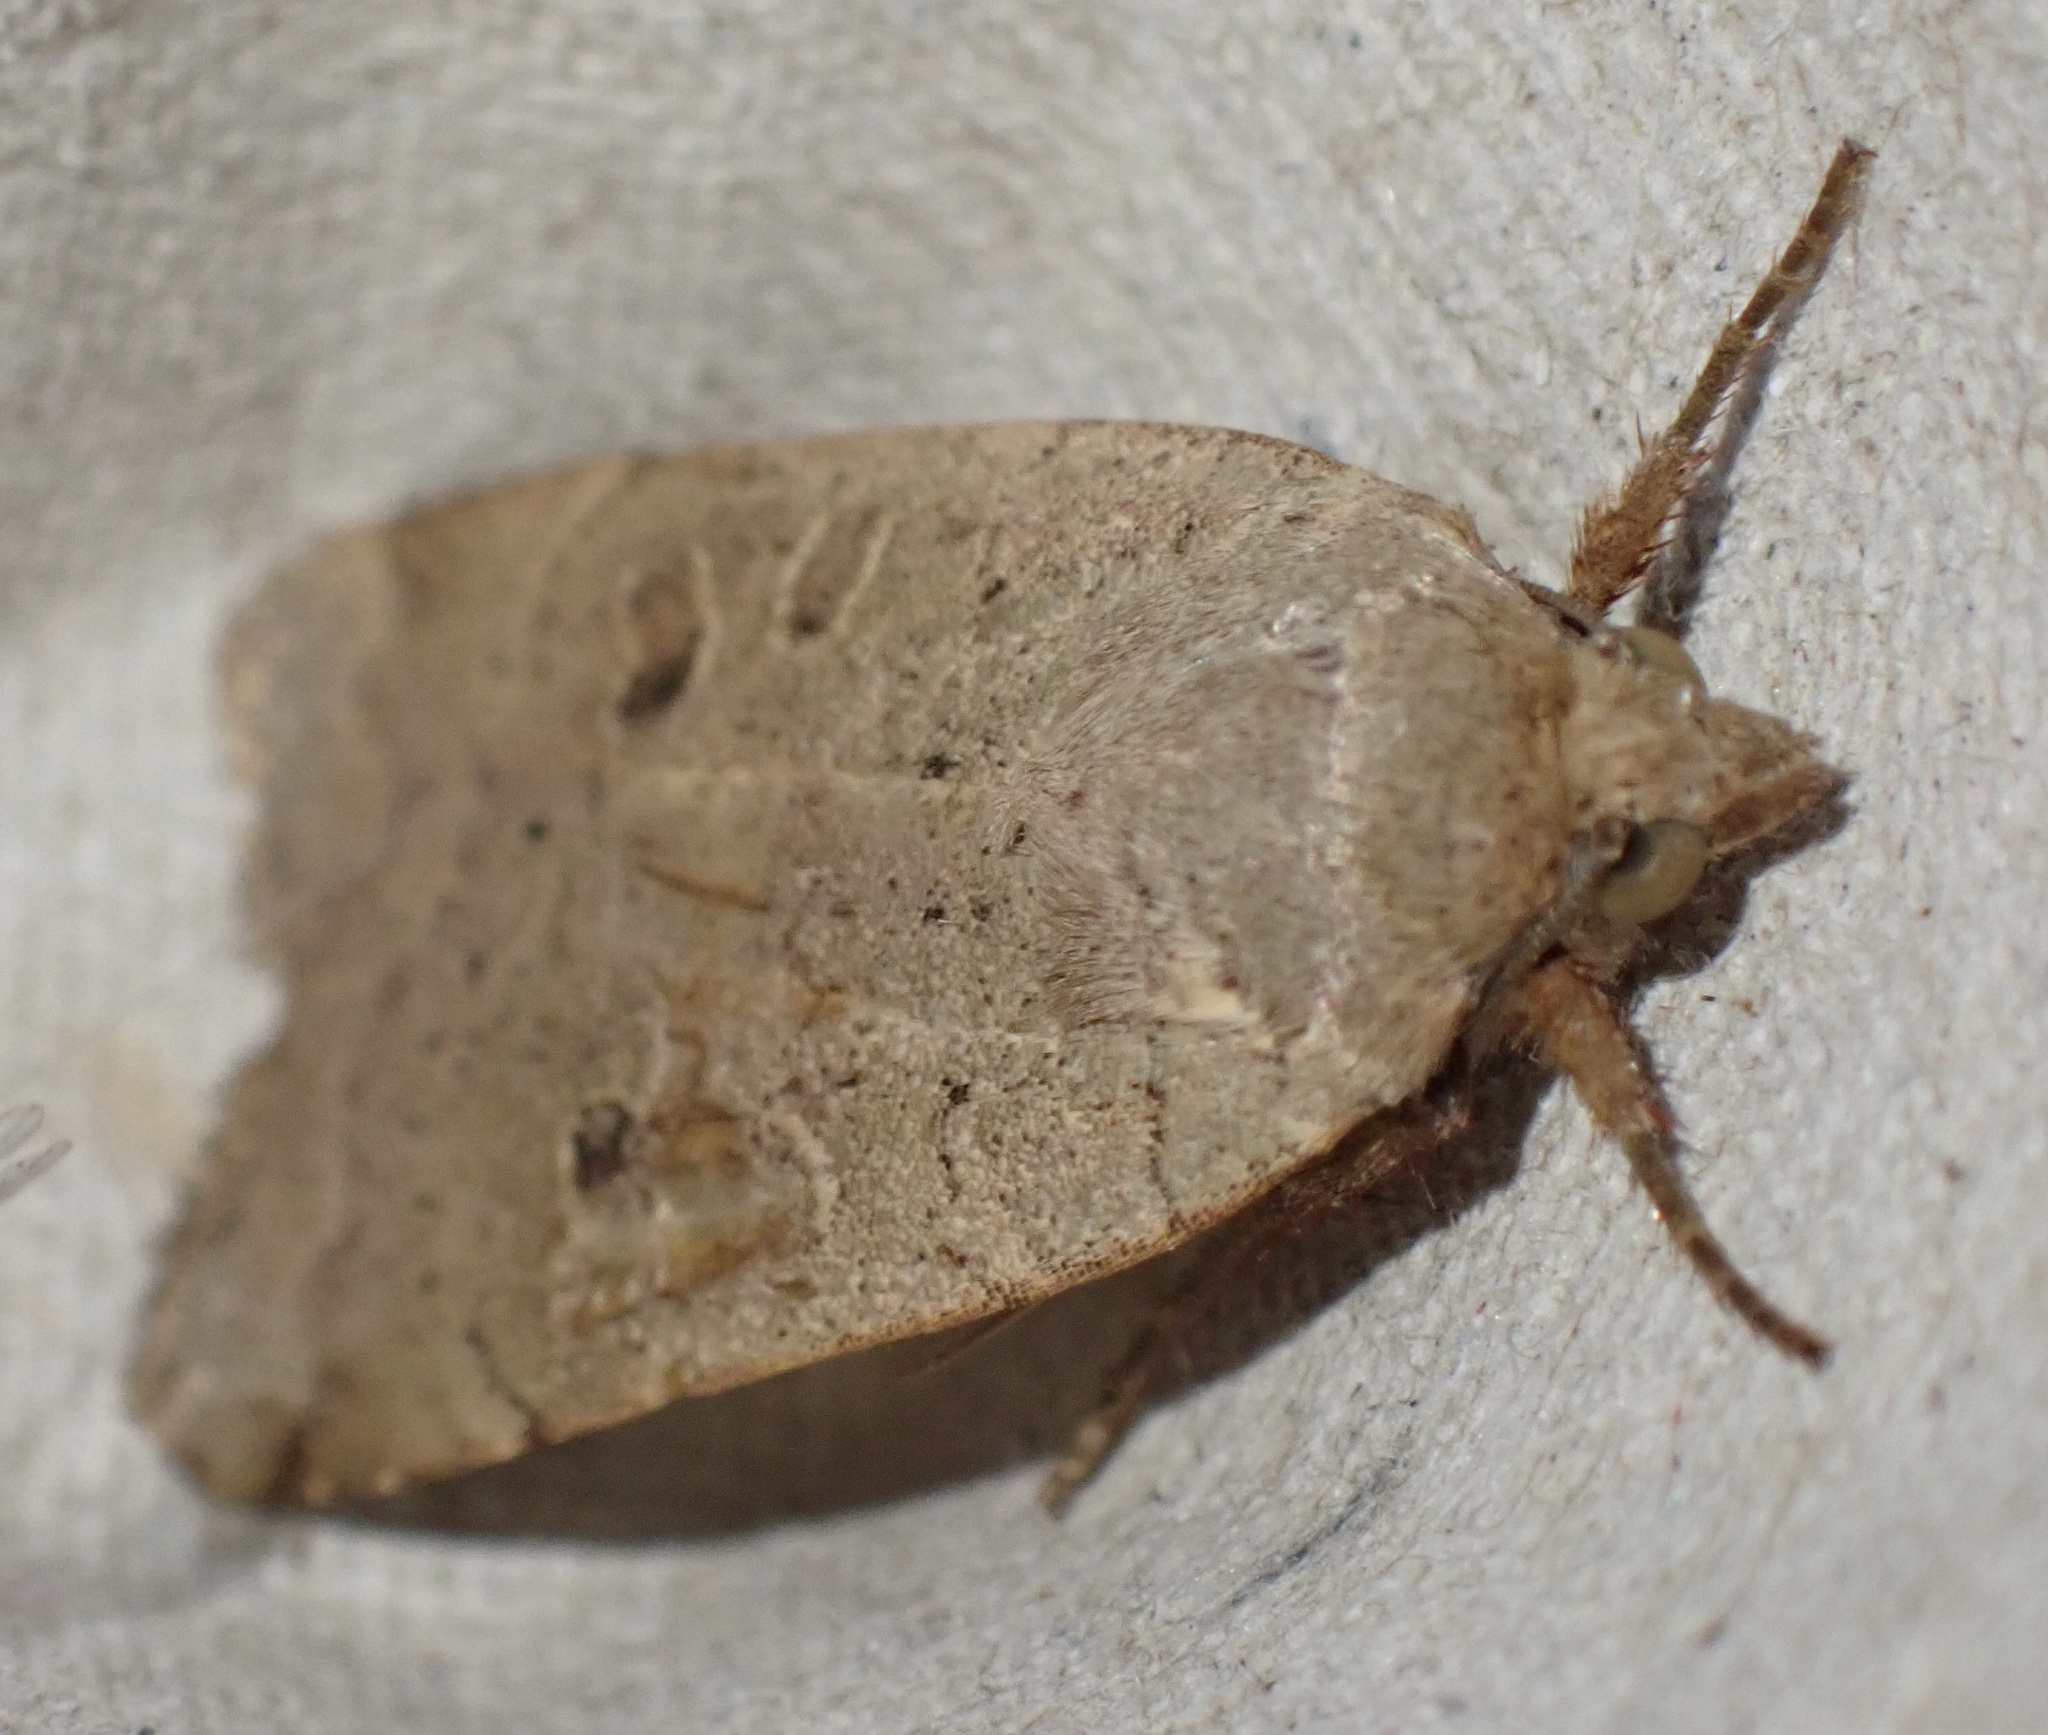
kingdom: Animalia
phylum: Arthropoda
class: Insecta
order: Lepidoptera
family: Noctuidae
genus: Noctua
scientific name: Noctua comes
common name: Lesser yellow underwing
